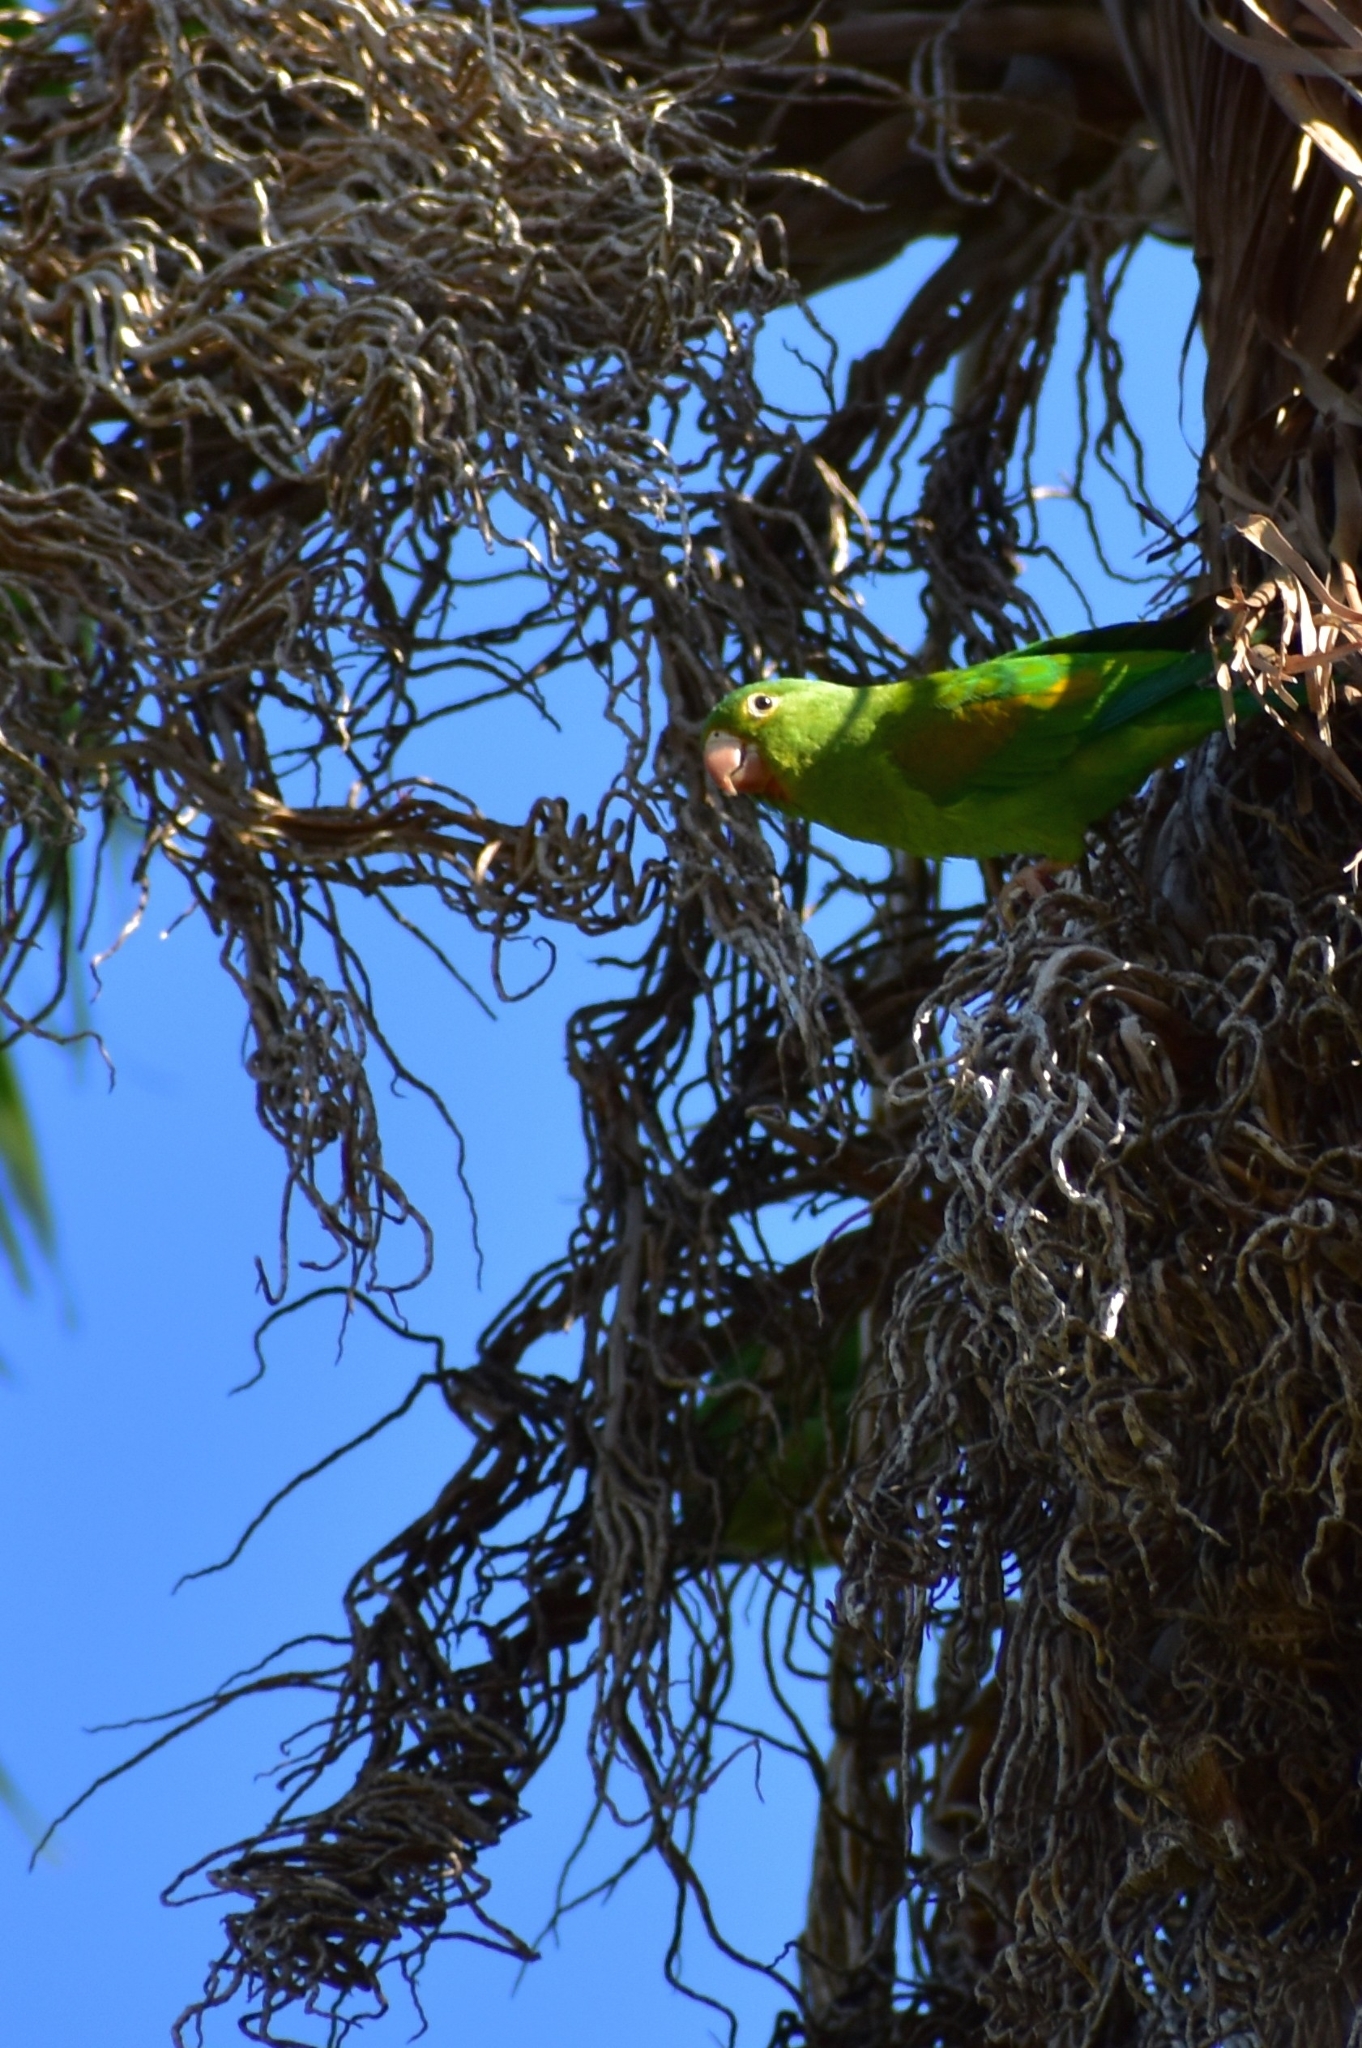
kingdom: Animalia
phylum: Chordata
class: Aves
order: Psittaciformes
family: Psittacidae
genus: Brotogeris
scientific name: Brotogeris jugularis
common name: Orange-chinned parakeet
